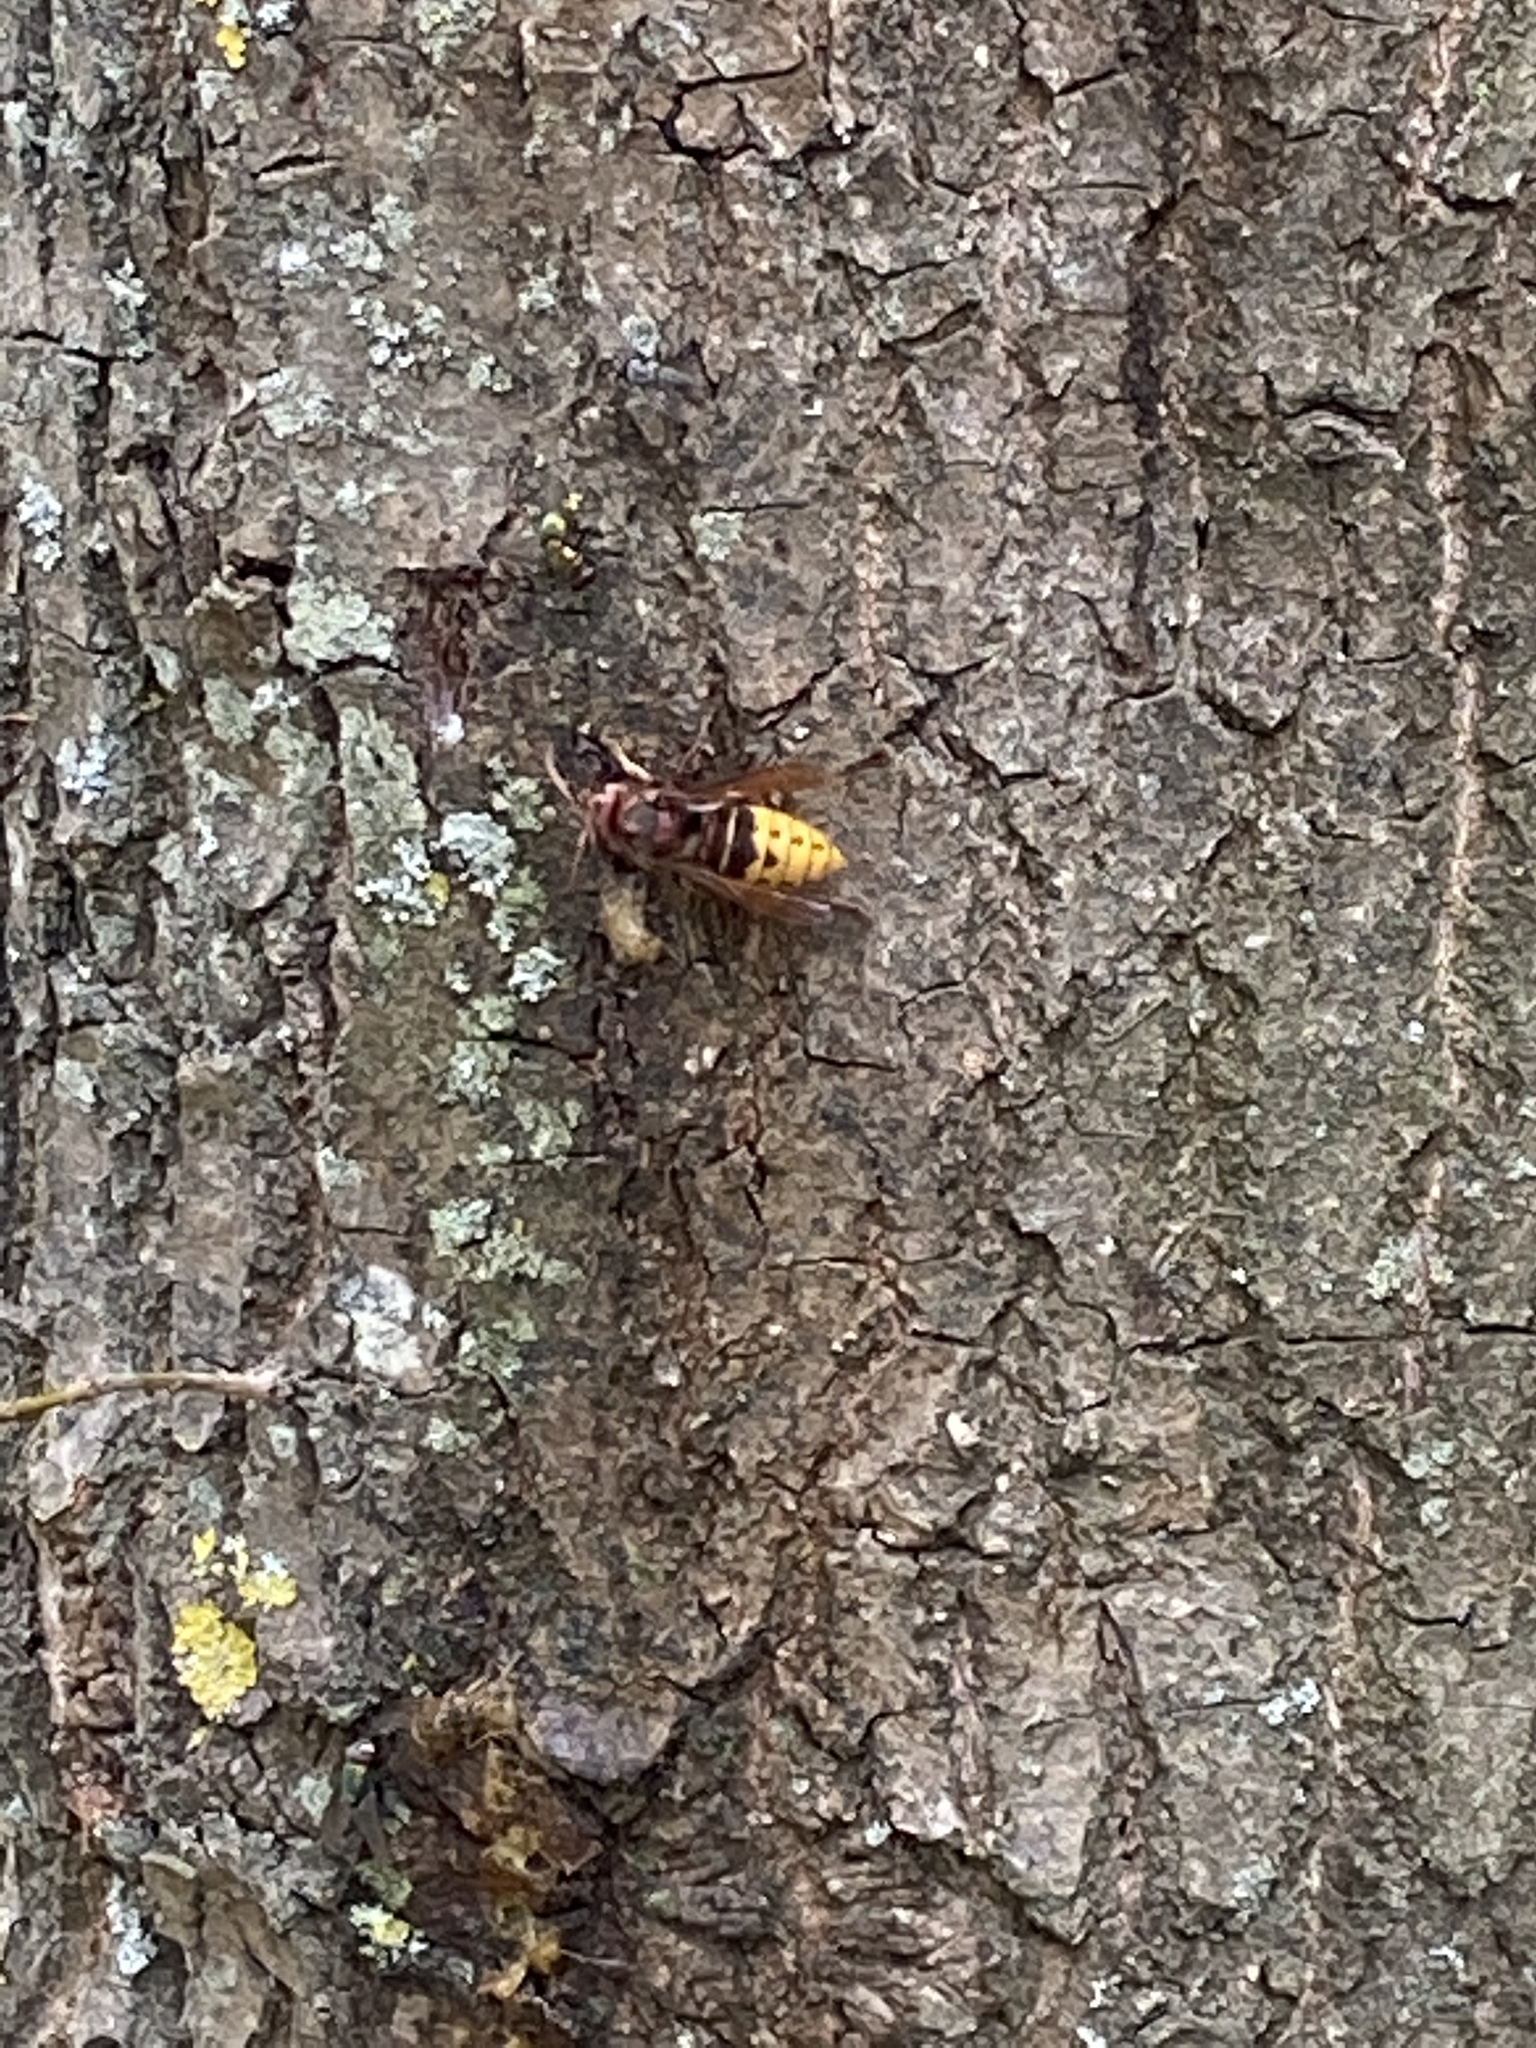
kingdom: Animalia
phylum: Arthropoda
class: Insecta
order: Hymenoptera
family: Vespidae
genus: Vespa
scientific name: Vespa crabro
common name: Hornet
